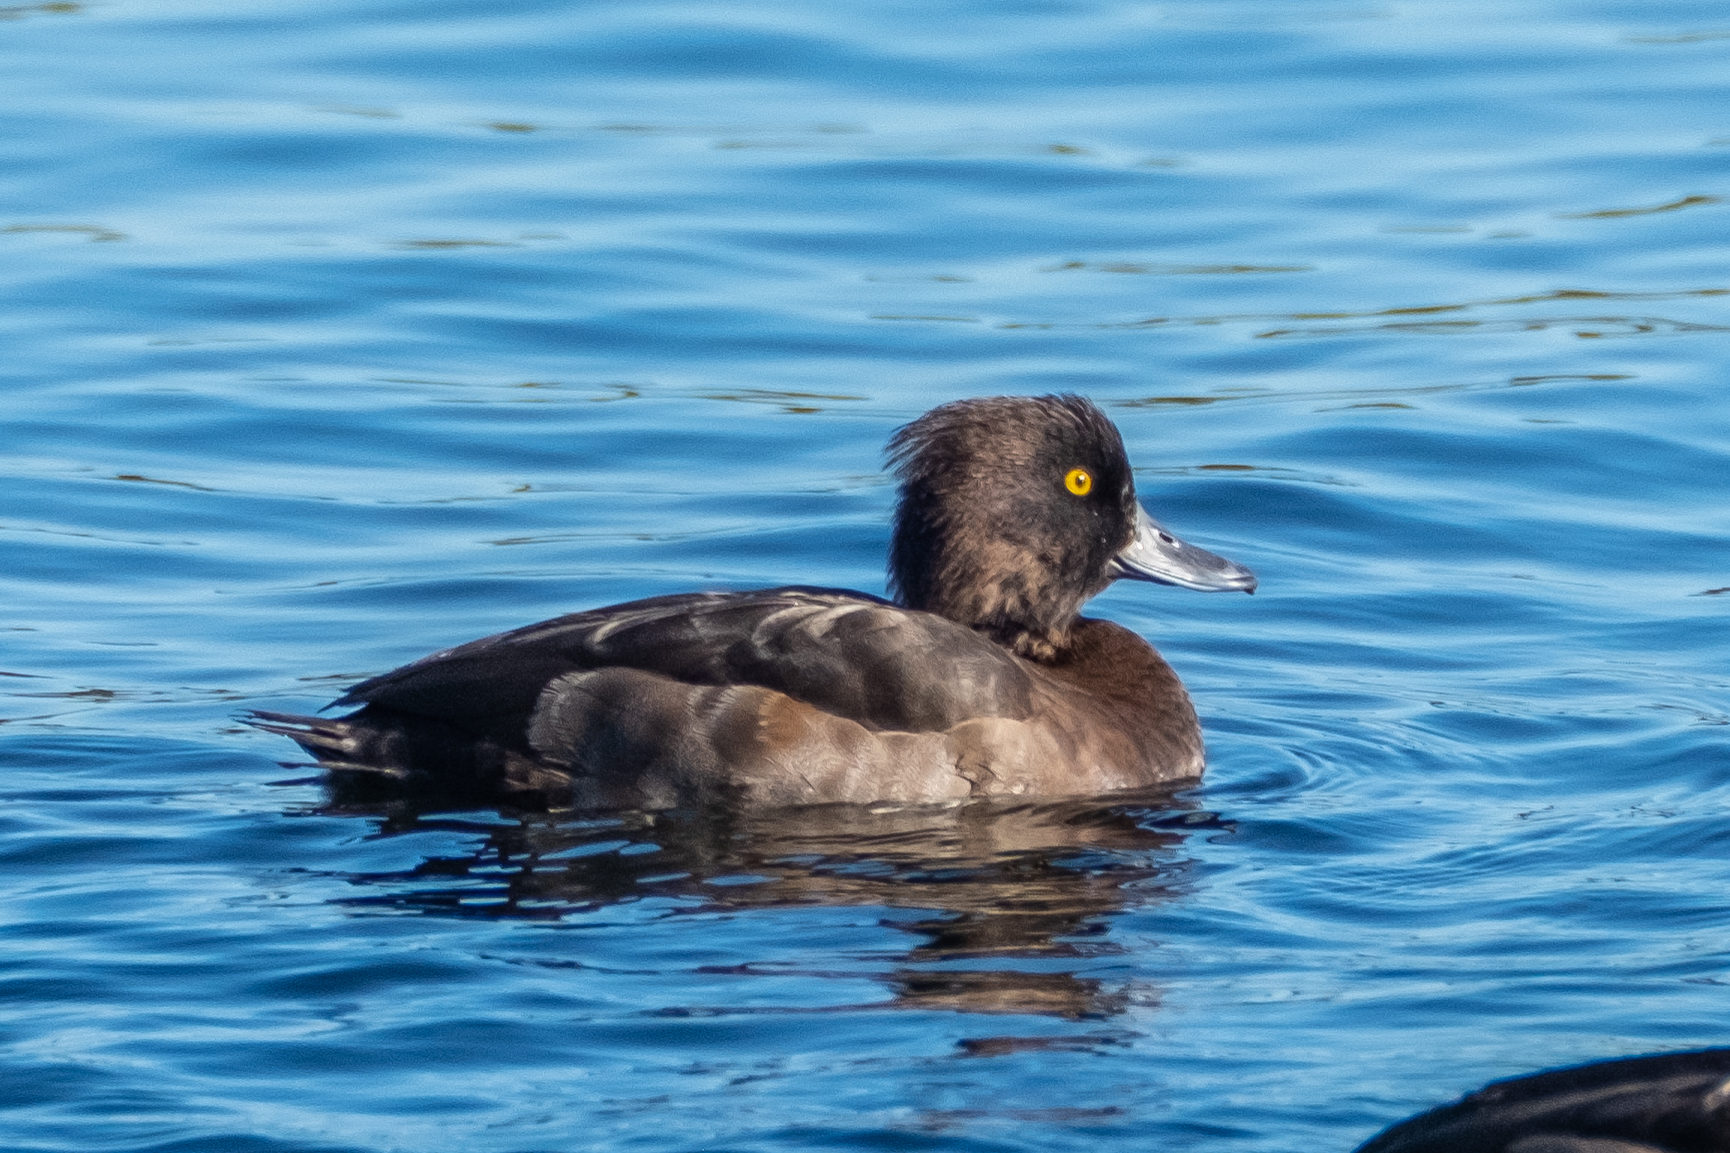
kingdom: Animalia
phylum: Chordata
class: Aves
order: Anseriformes
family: Anatidae
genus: Aythya
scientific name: Aythya fuligula
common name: Tufted duck
